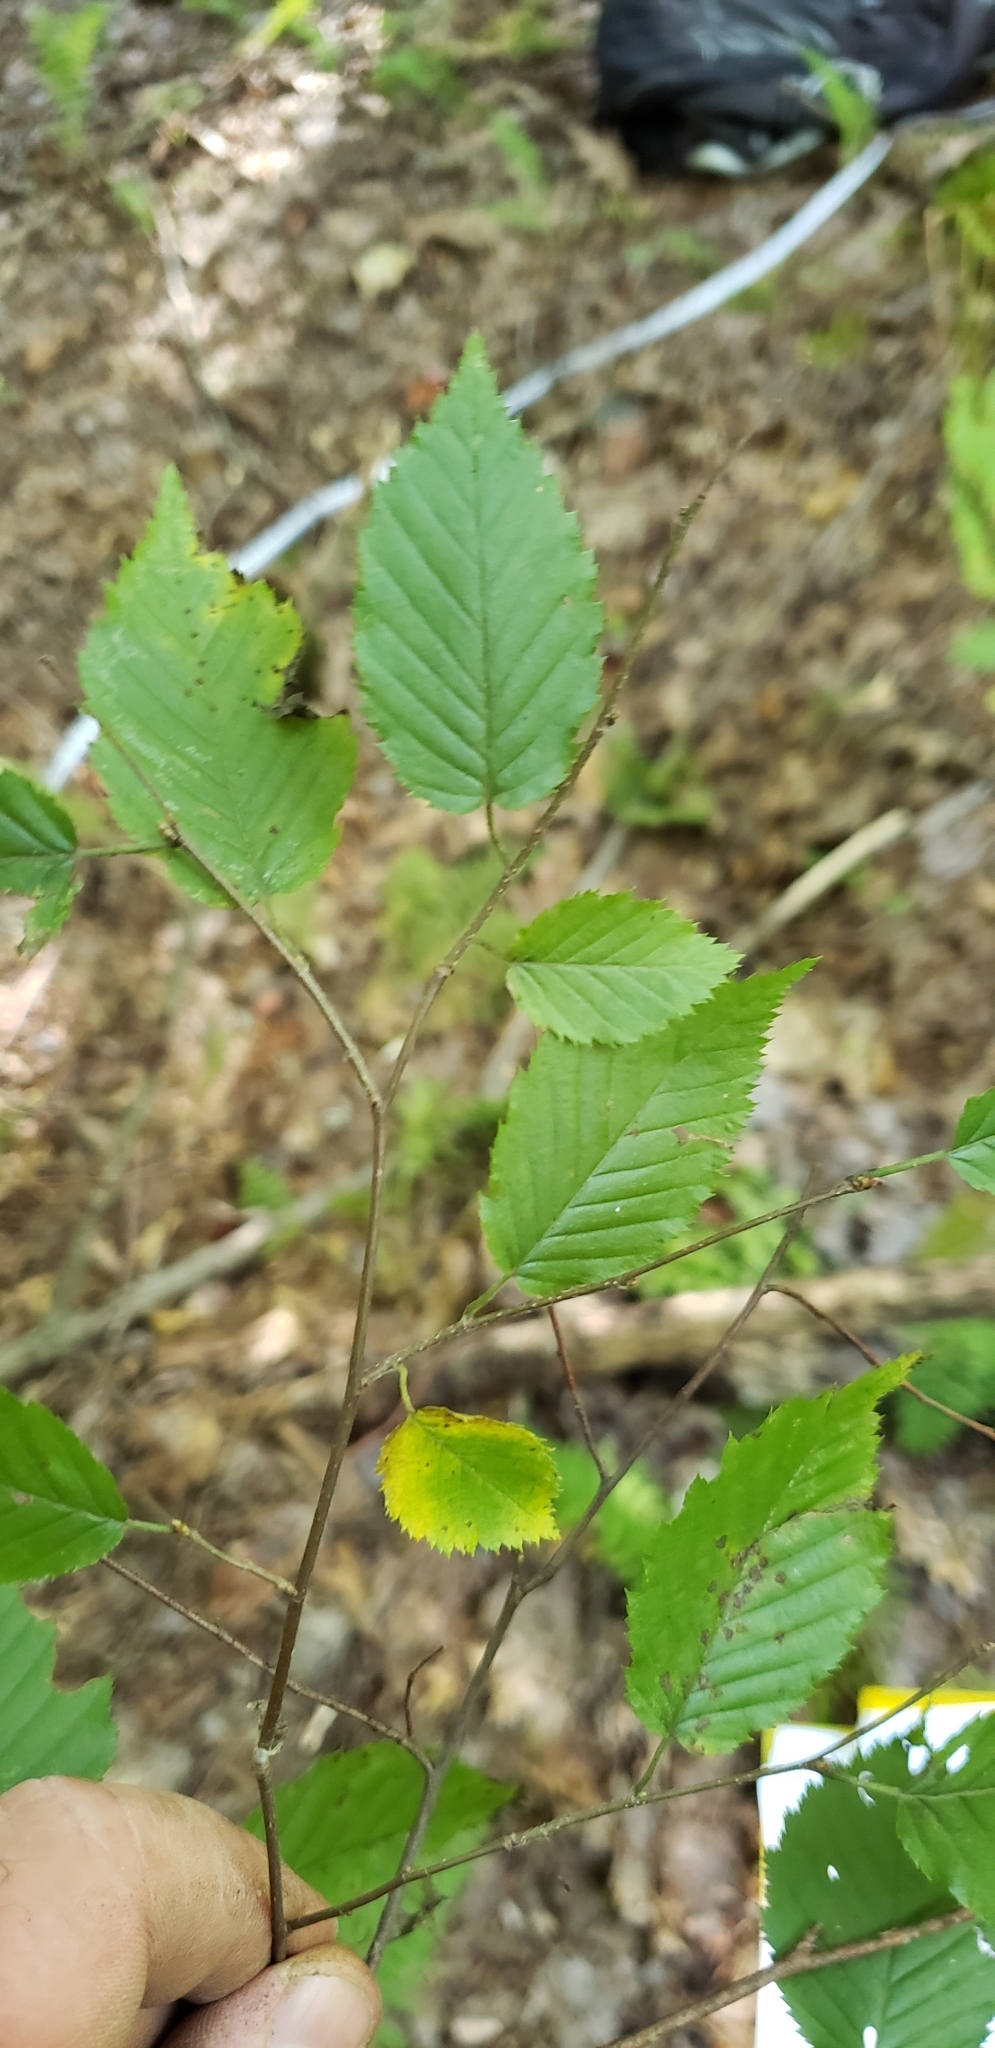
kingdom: Plantae
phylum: Tracheophyta
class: Magnoliopsida
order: Fagales
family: Betulaceae
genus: Carpinus
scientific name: Carpinus caroliniana
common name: American hornbeam
